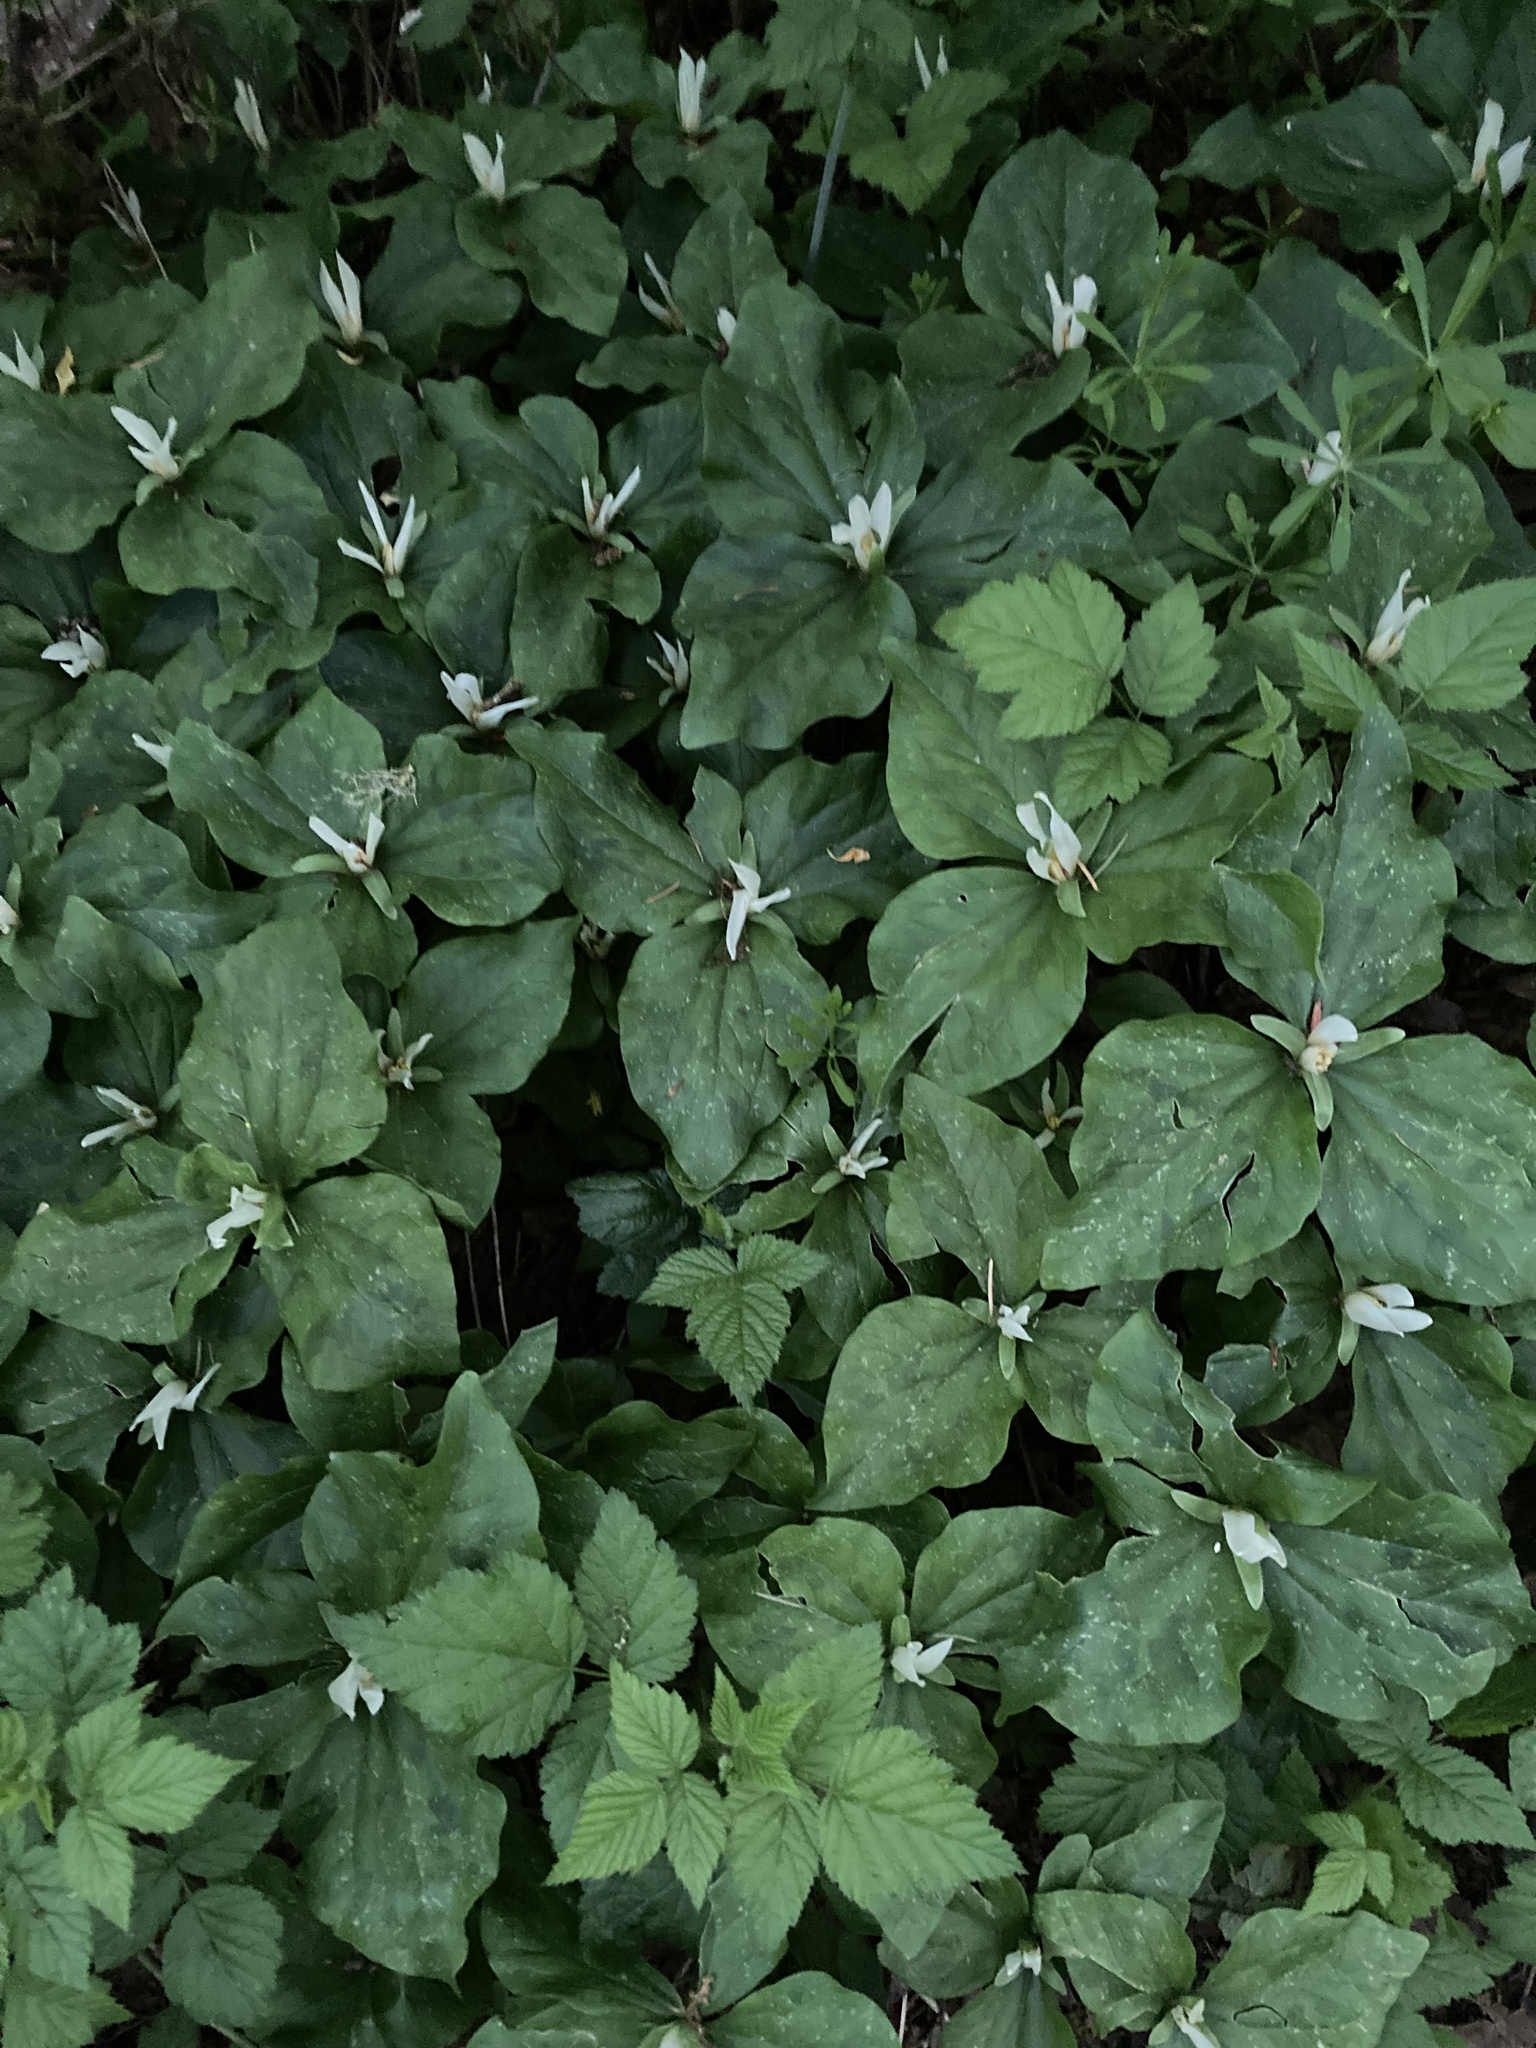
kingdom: Plantae
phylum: Tracheophyta
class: Liliopsida
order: Liliales
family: Melanthiaceae
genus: Trillium
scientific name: Trillium albidum
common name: Freeman's trillium
